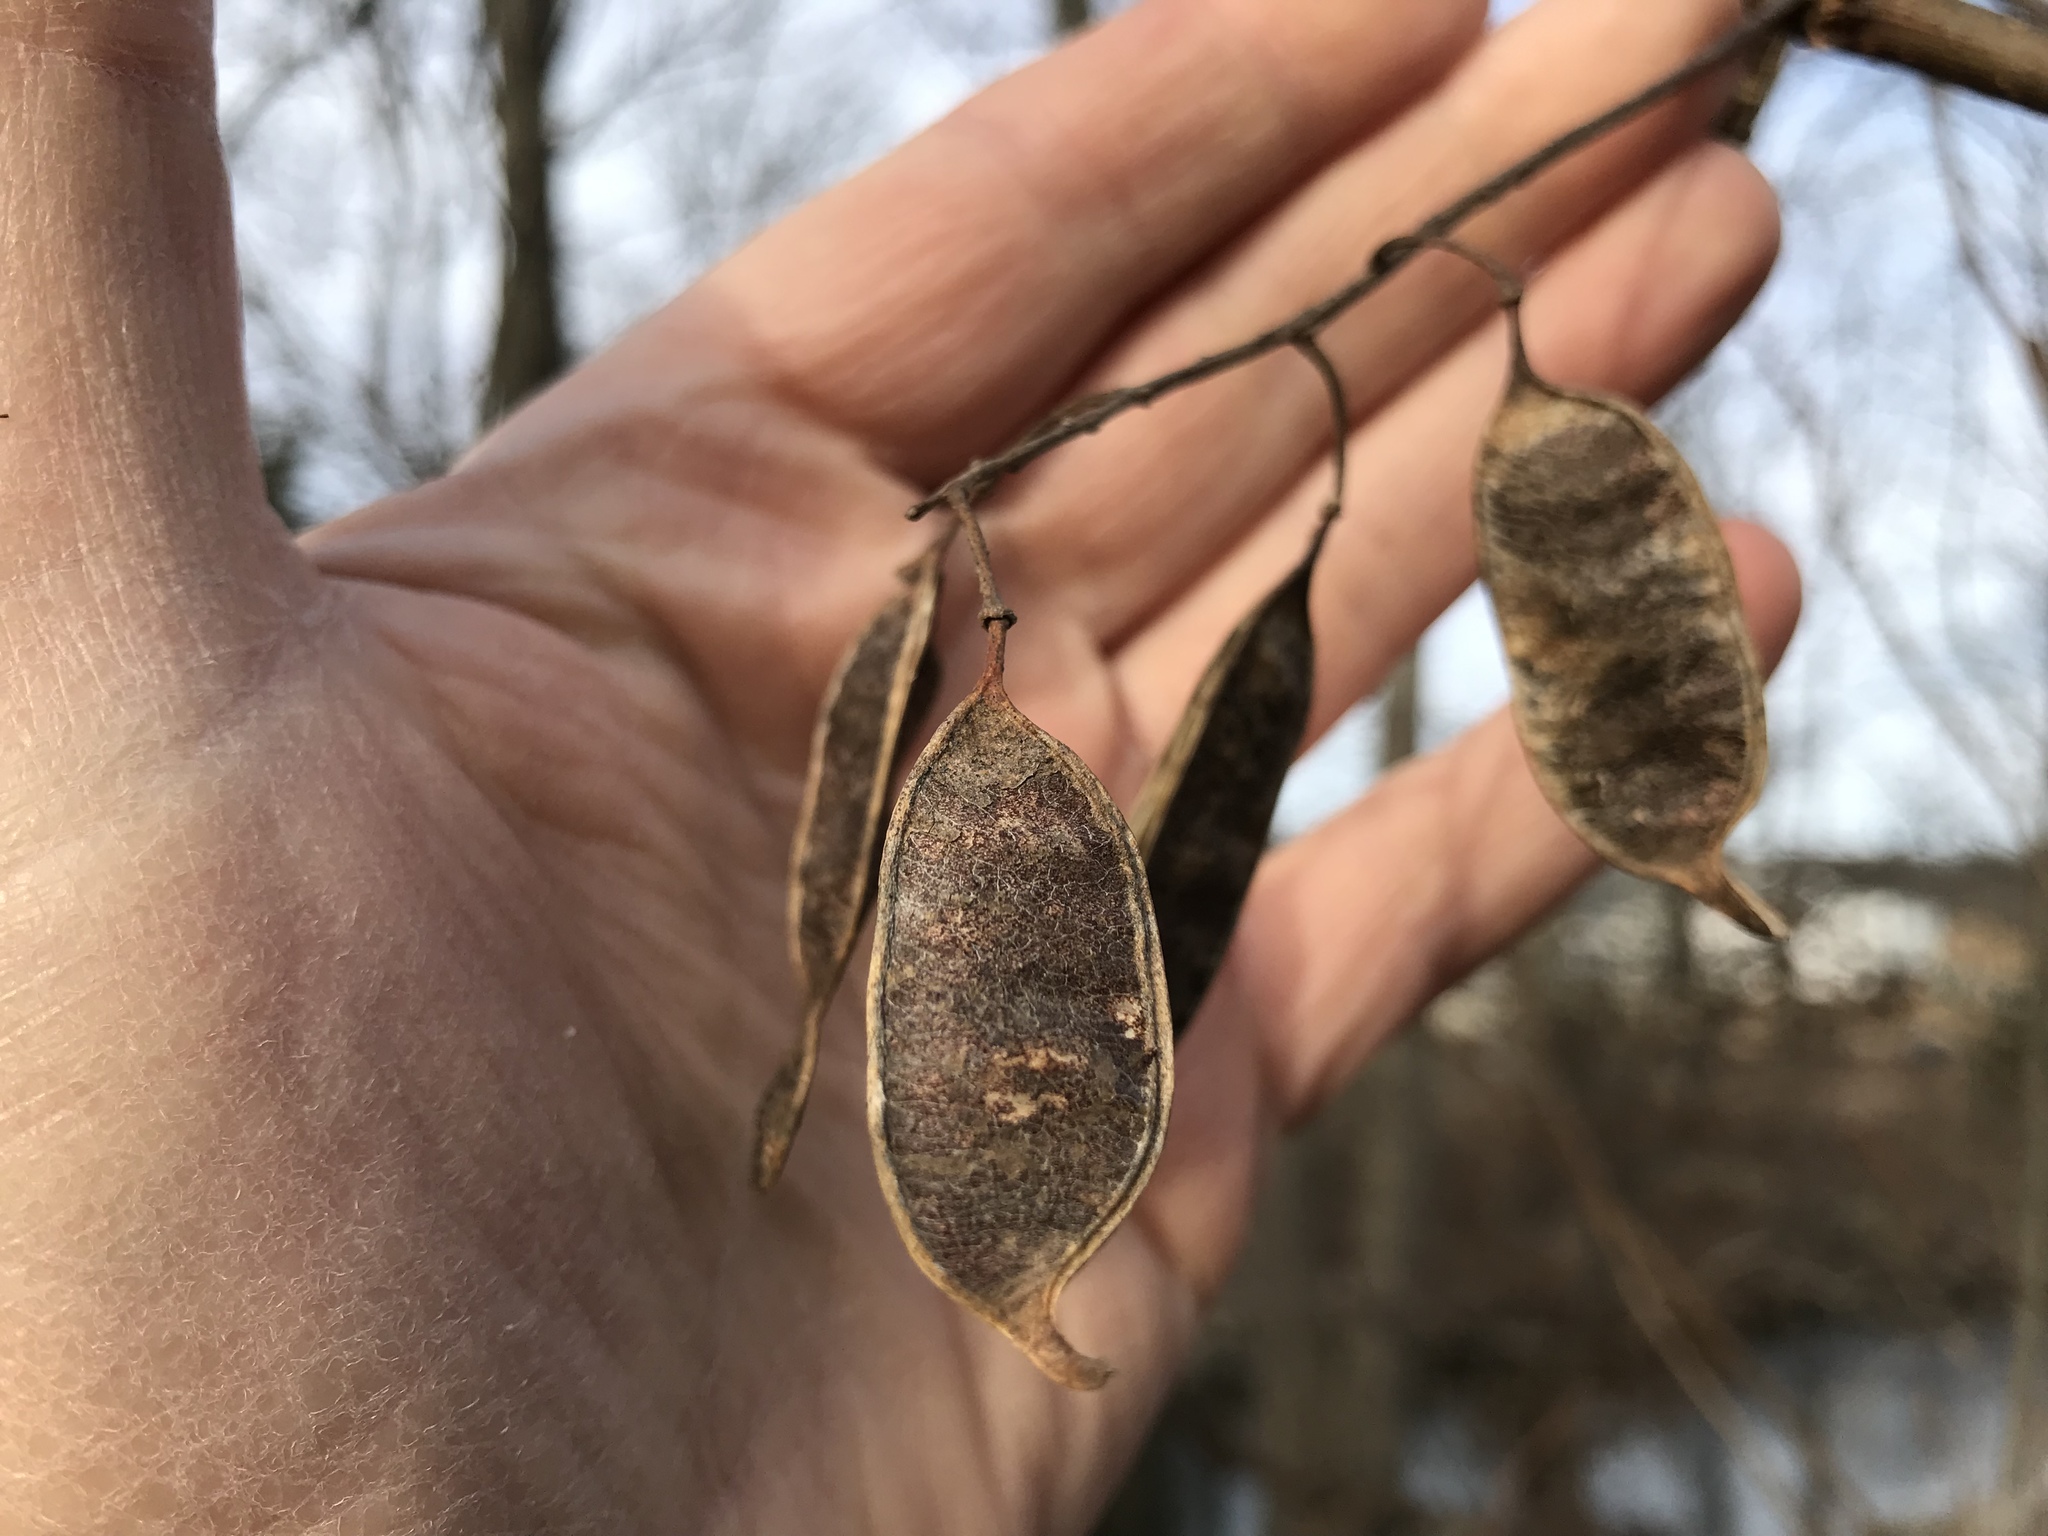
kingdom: Plantae
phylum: Tracheophyta
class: Magnoliopsida
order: Fabales
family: Fabaceae
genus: Robinia
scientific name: Robinia pseudoacacia
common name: Black locust
